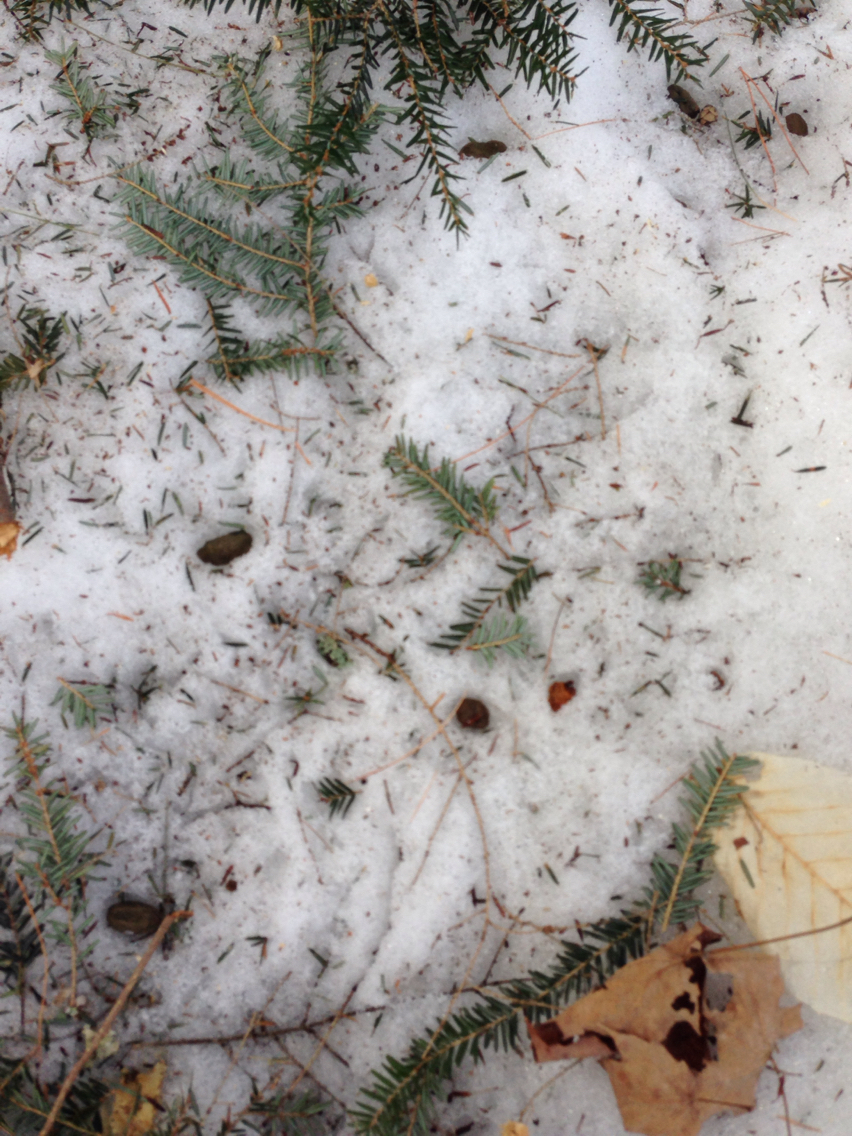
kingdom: Animalia
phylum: Chordata
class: Mammalia
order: Rodentia
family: Erethizontidae
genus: Erethizon
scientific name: Erethizon dorsatus
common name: North american porcupine
